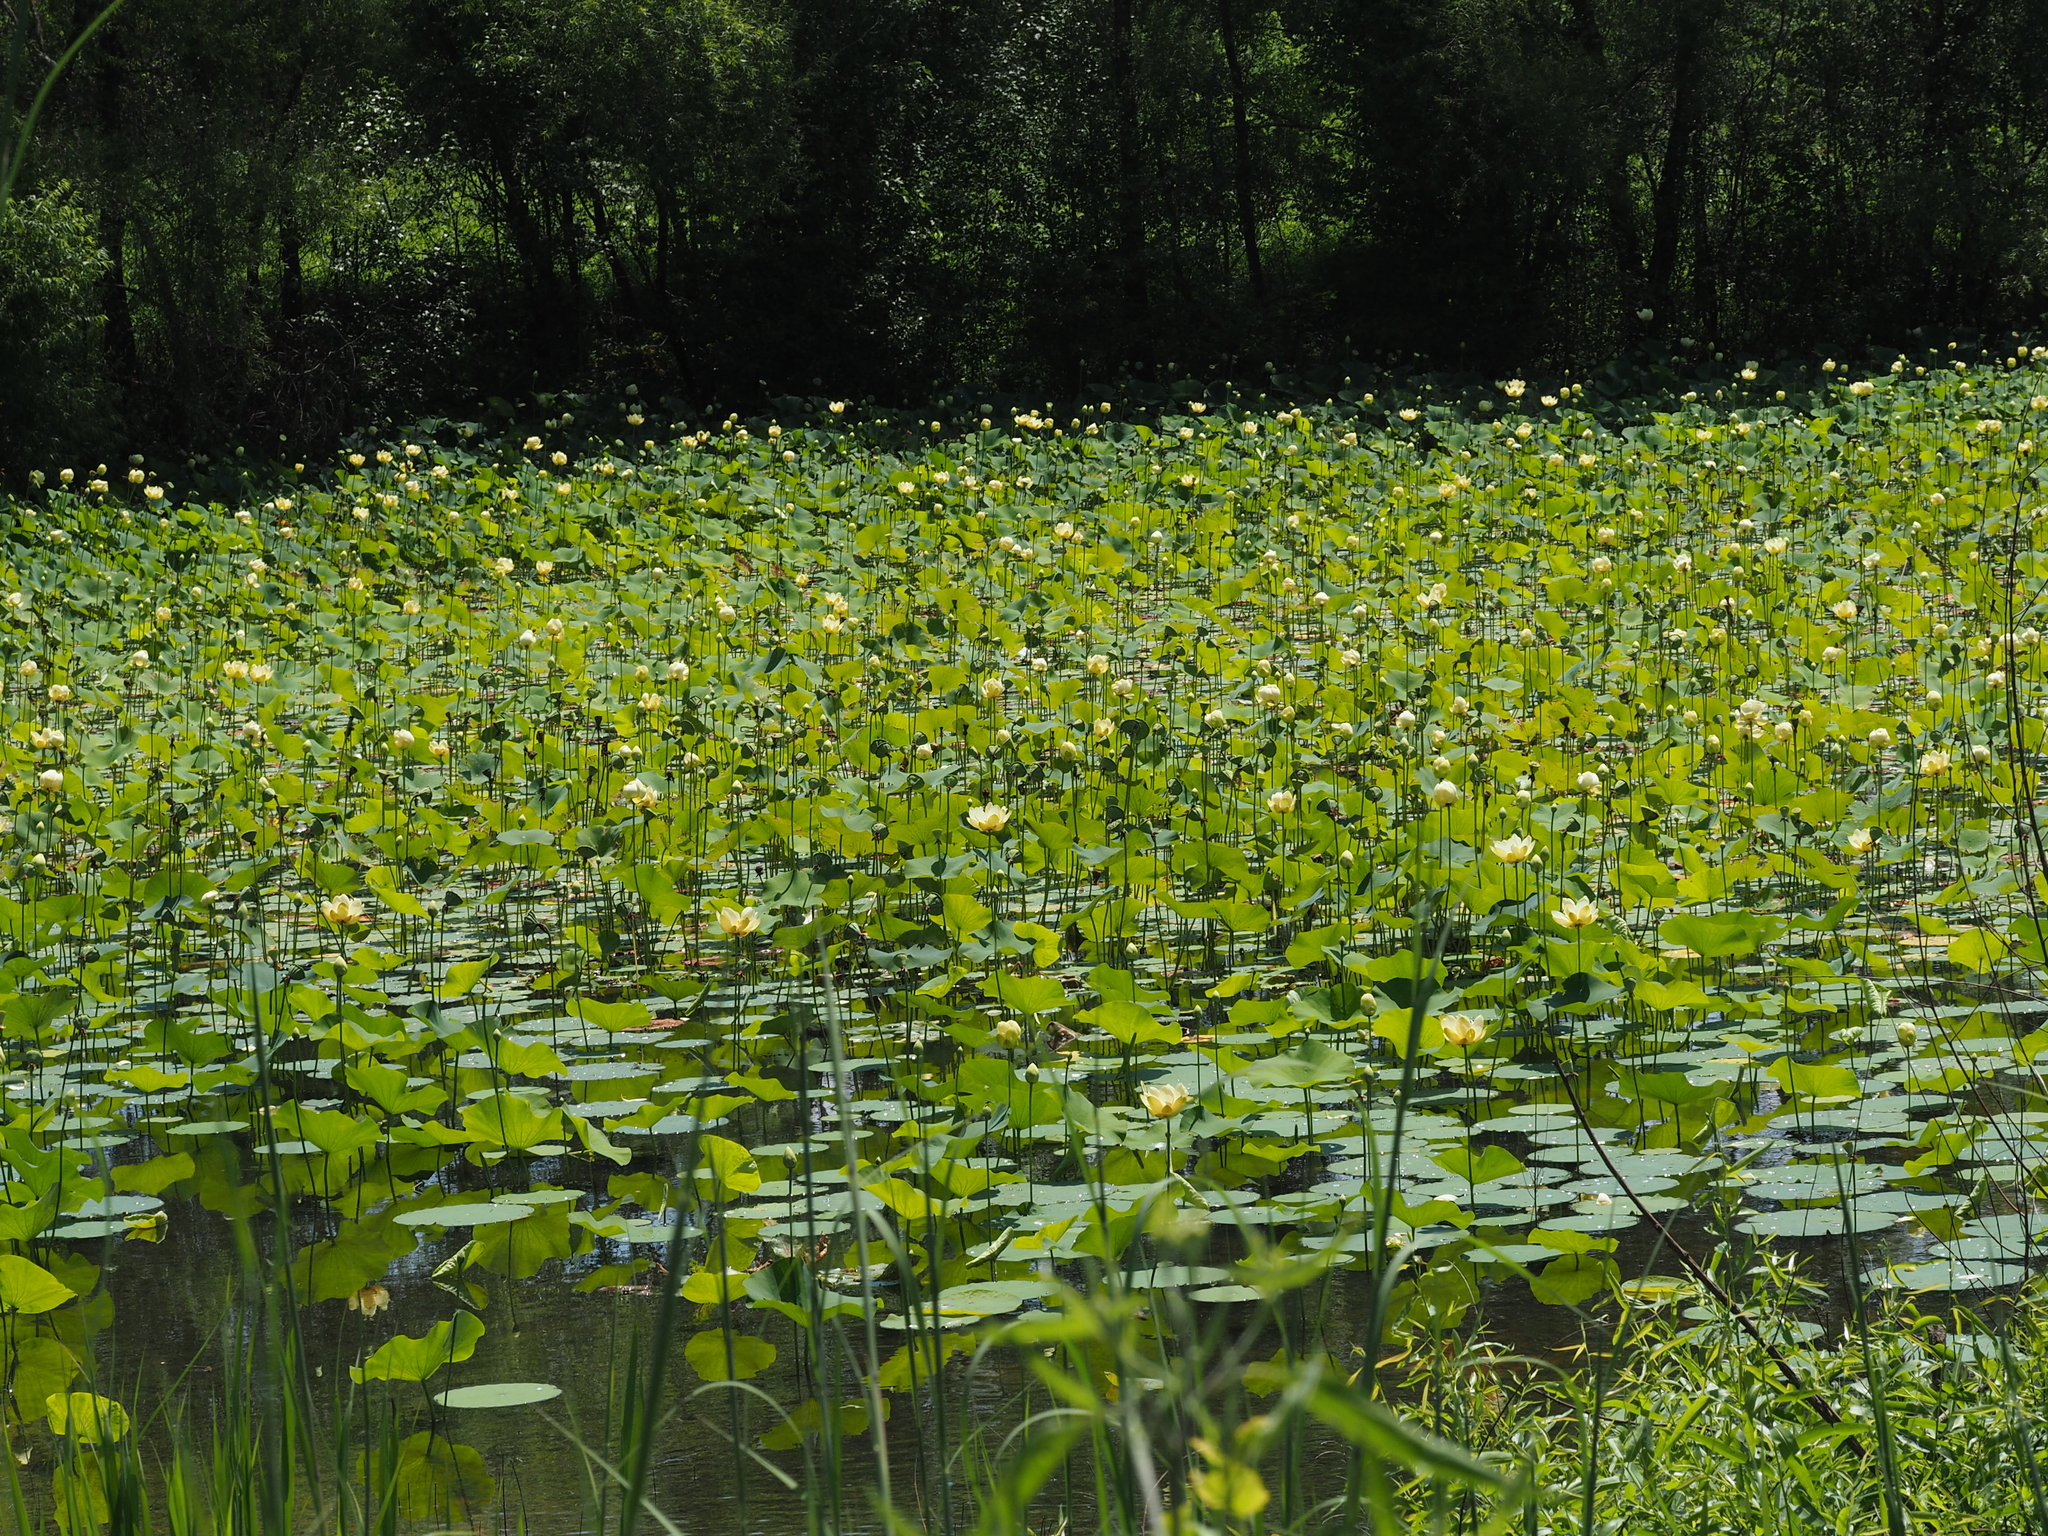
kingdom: Plantae
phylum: Tracheophyta
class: Magnoliopsida
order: Proteales
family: Nelumbonaceae
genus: Nelumbo
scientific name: Nelumbo lutea
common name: American lotus
